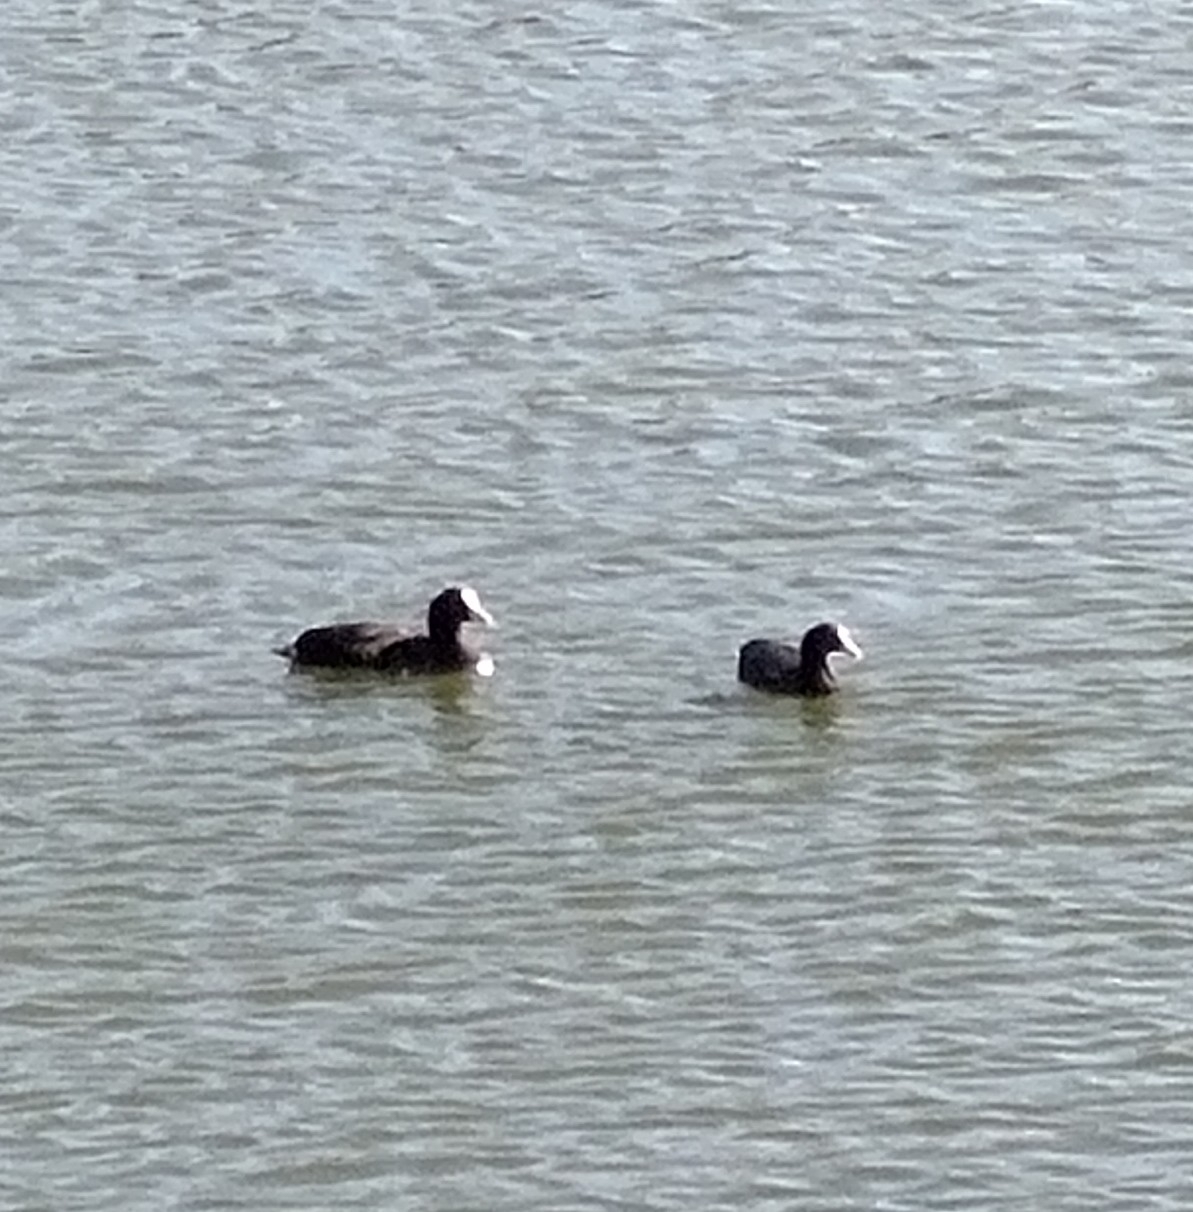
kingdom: Animalia
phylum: Chordata
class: Aves
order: Gruiformes
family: Rallidae
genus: Fulica
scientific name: Fulica atra
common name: Eurasian coot
